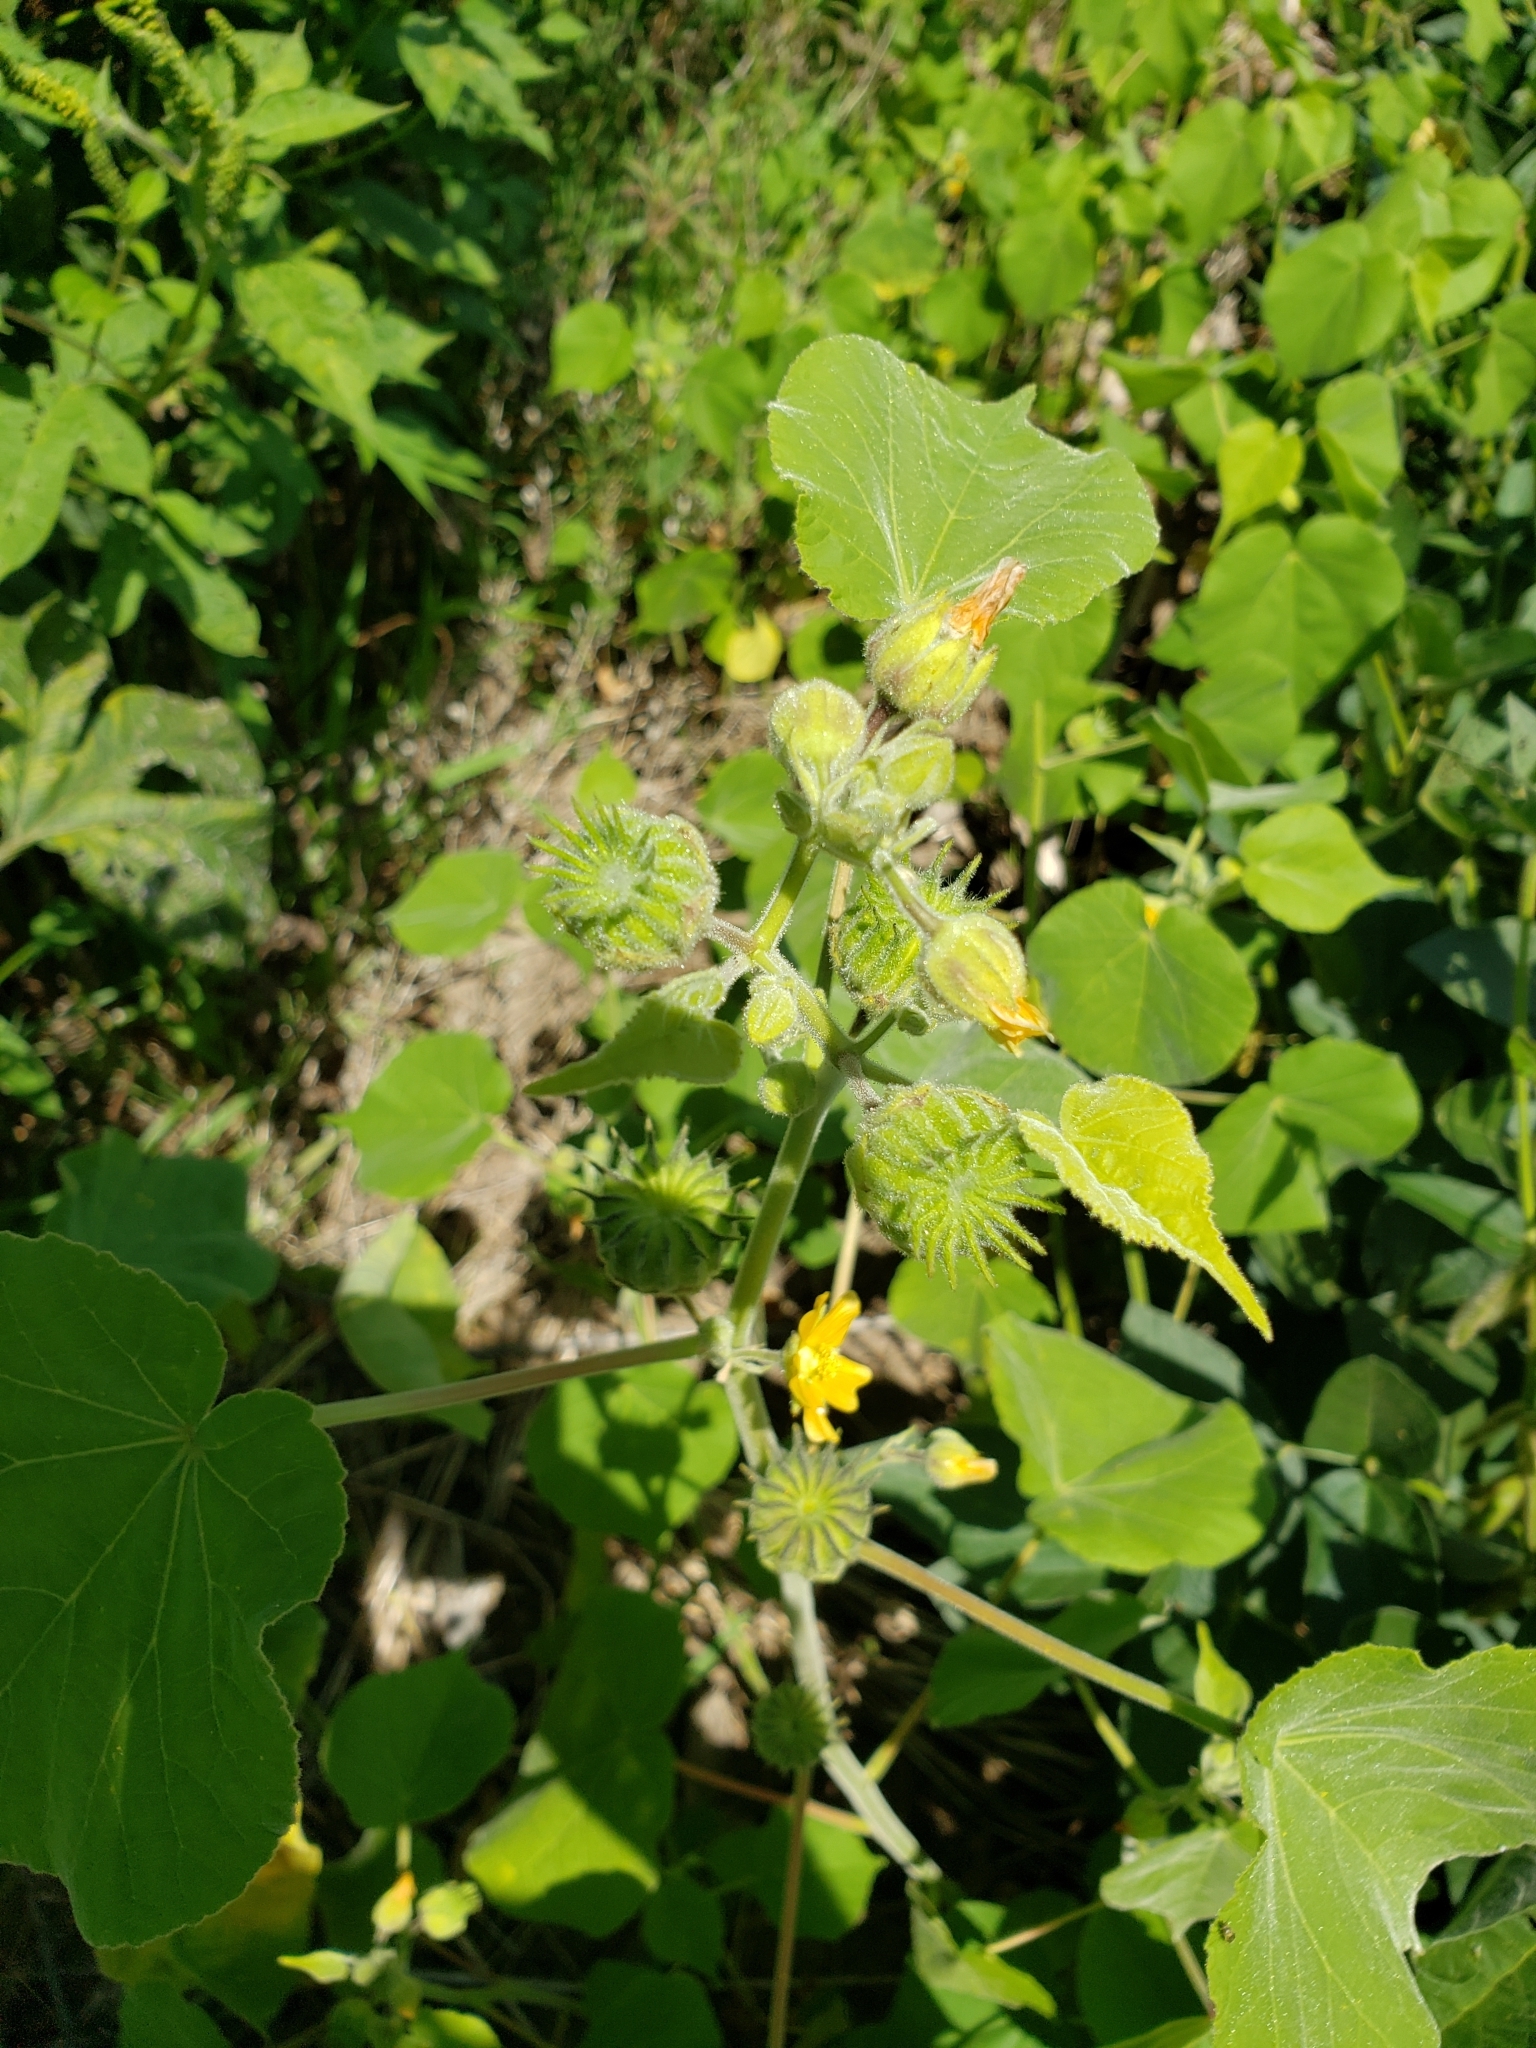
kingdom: Plantae
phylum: Tracheophyta
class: Magnoliopsida
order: Malvales
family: Malvaceae
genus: Abutilon
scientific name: Abutilon theophrasti
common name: Velvetleaf
